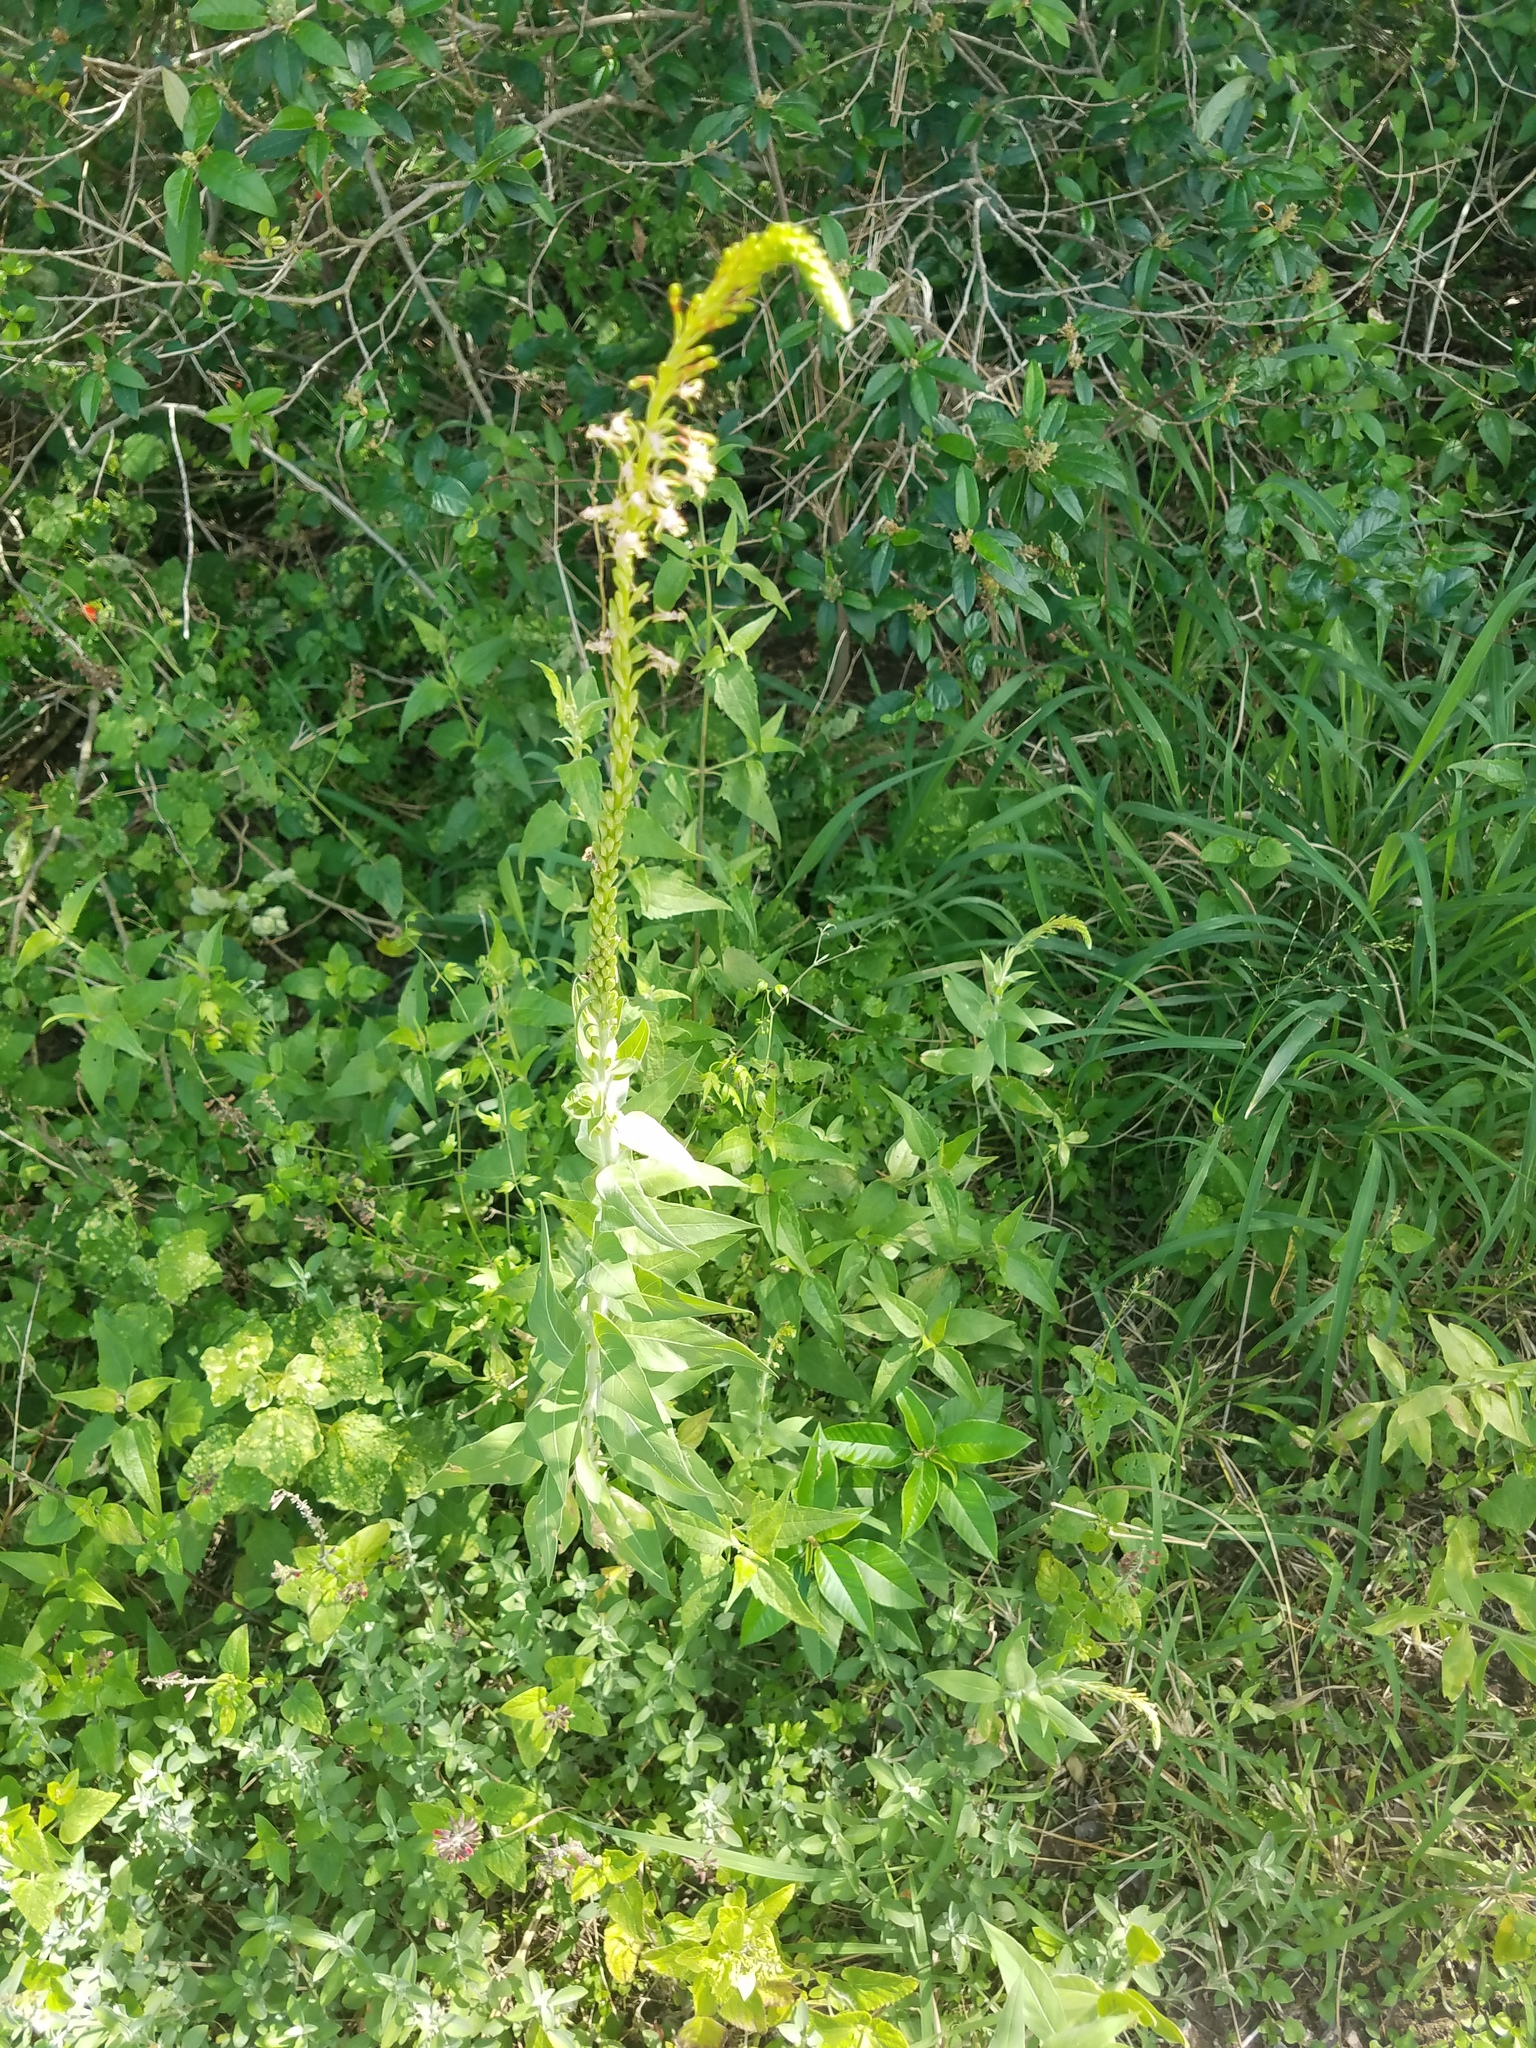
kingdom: Plantae
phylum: Tracheophyta
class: Magnoliopsida
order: Myrtales
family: Onagraceae
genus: Oenothera
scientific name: Oenothera curtiflora
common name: Velvetweed
